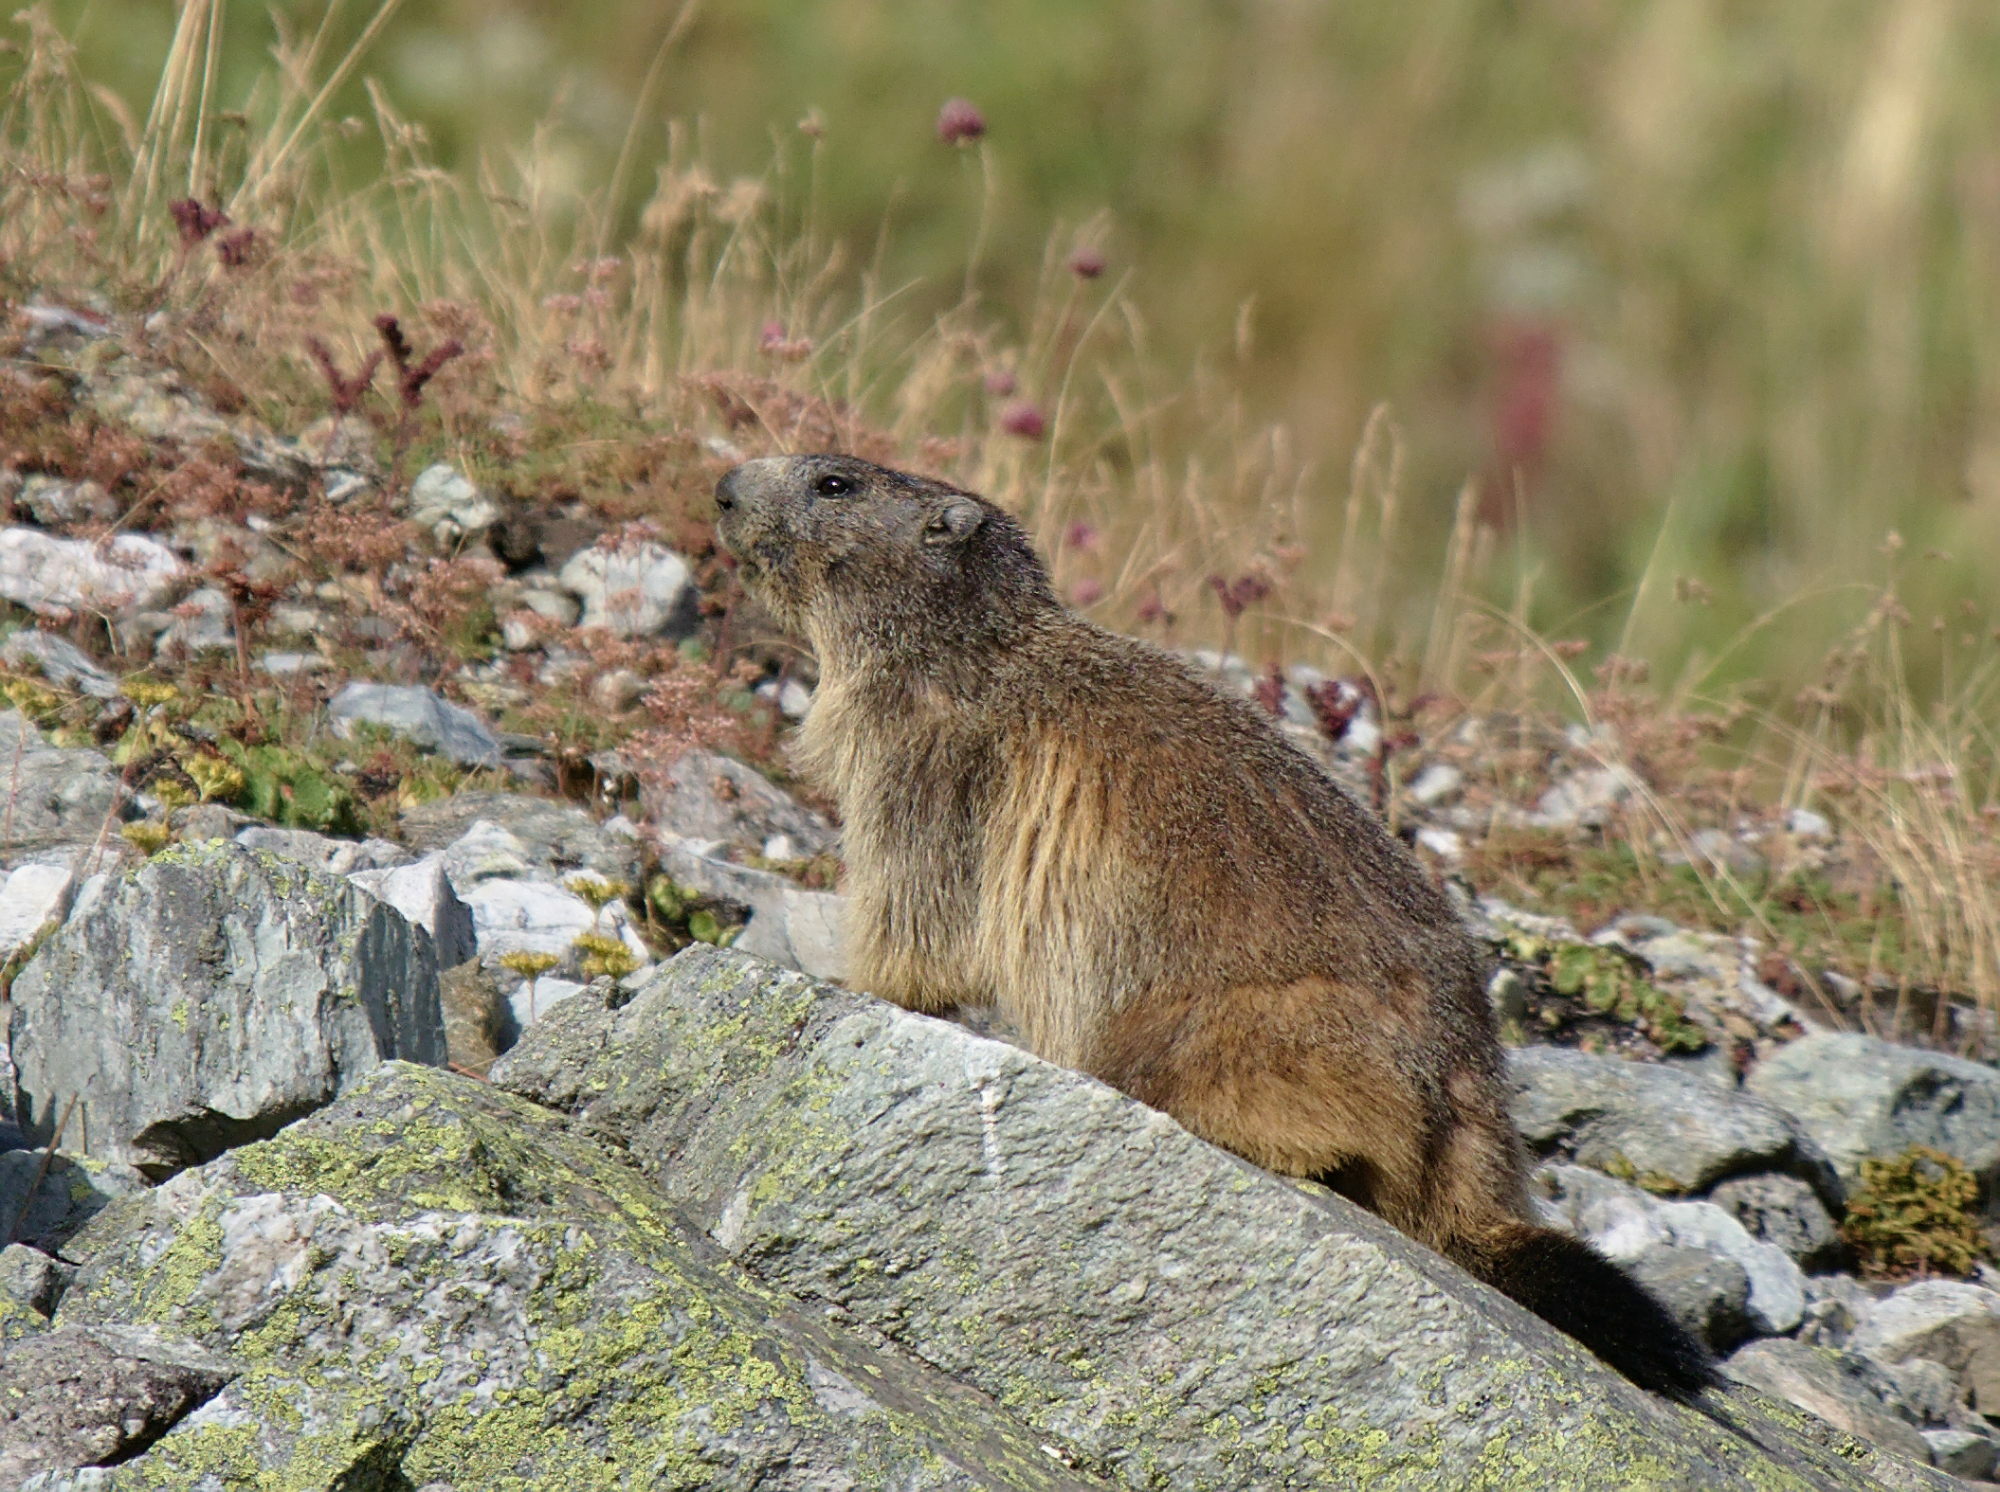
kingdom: Animalia
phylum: Chordata
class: Mammalia
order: Rodentia
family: Sciuridae
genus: Marmota
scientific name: Marmota marmota
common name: Alpine marmot
